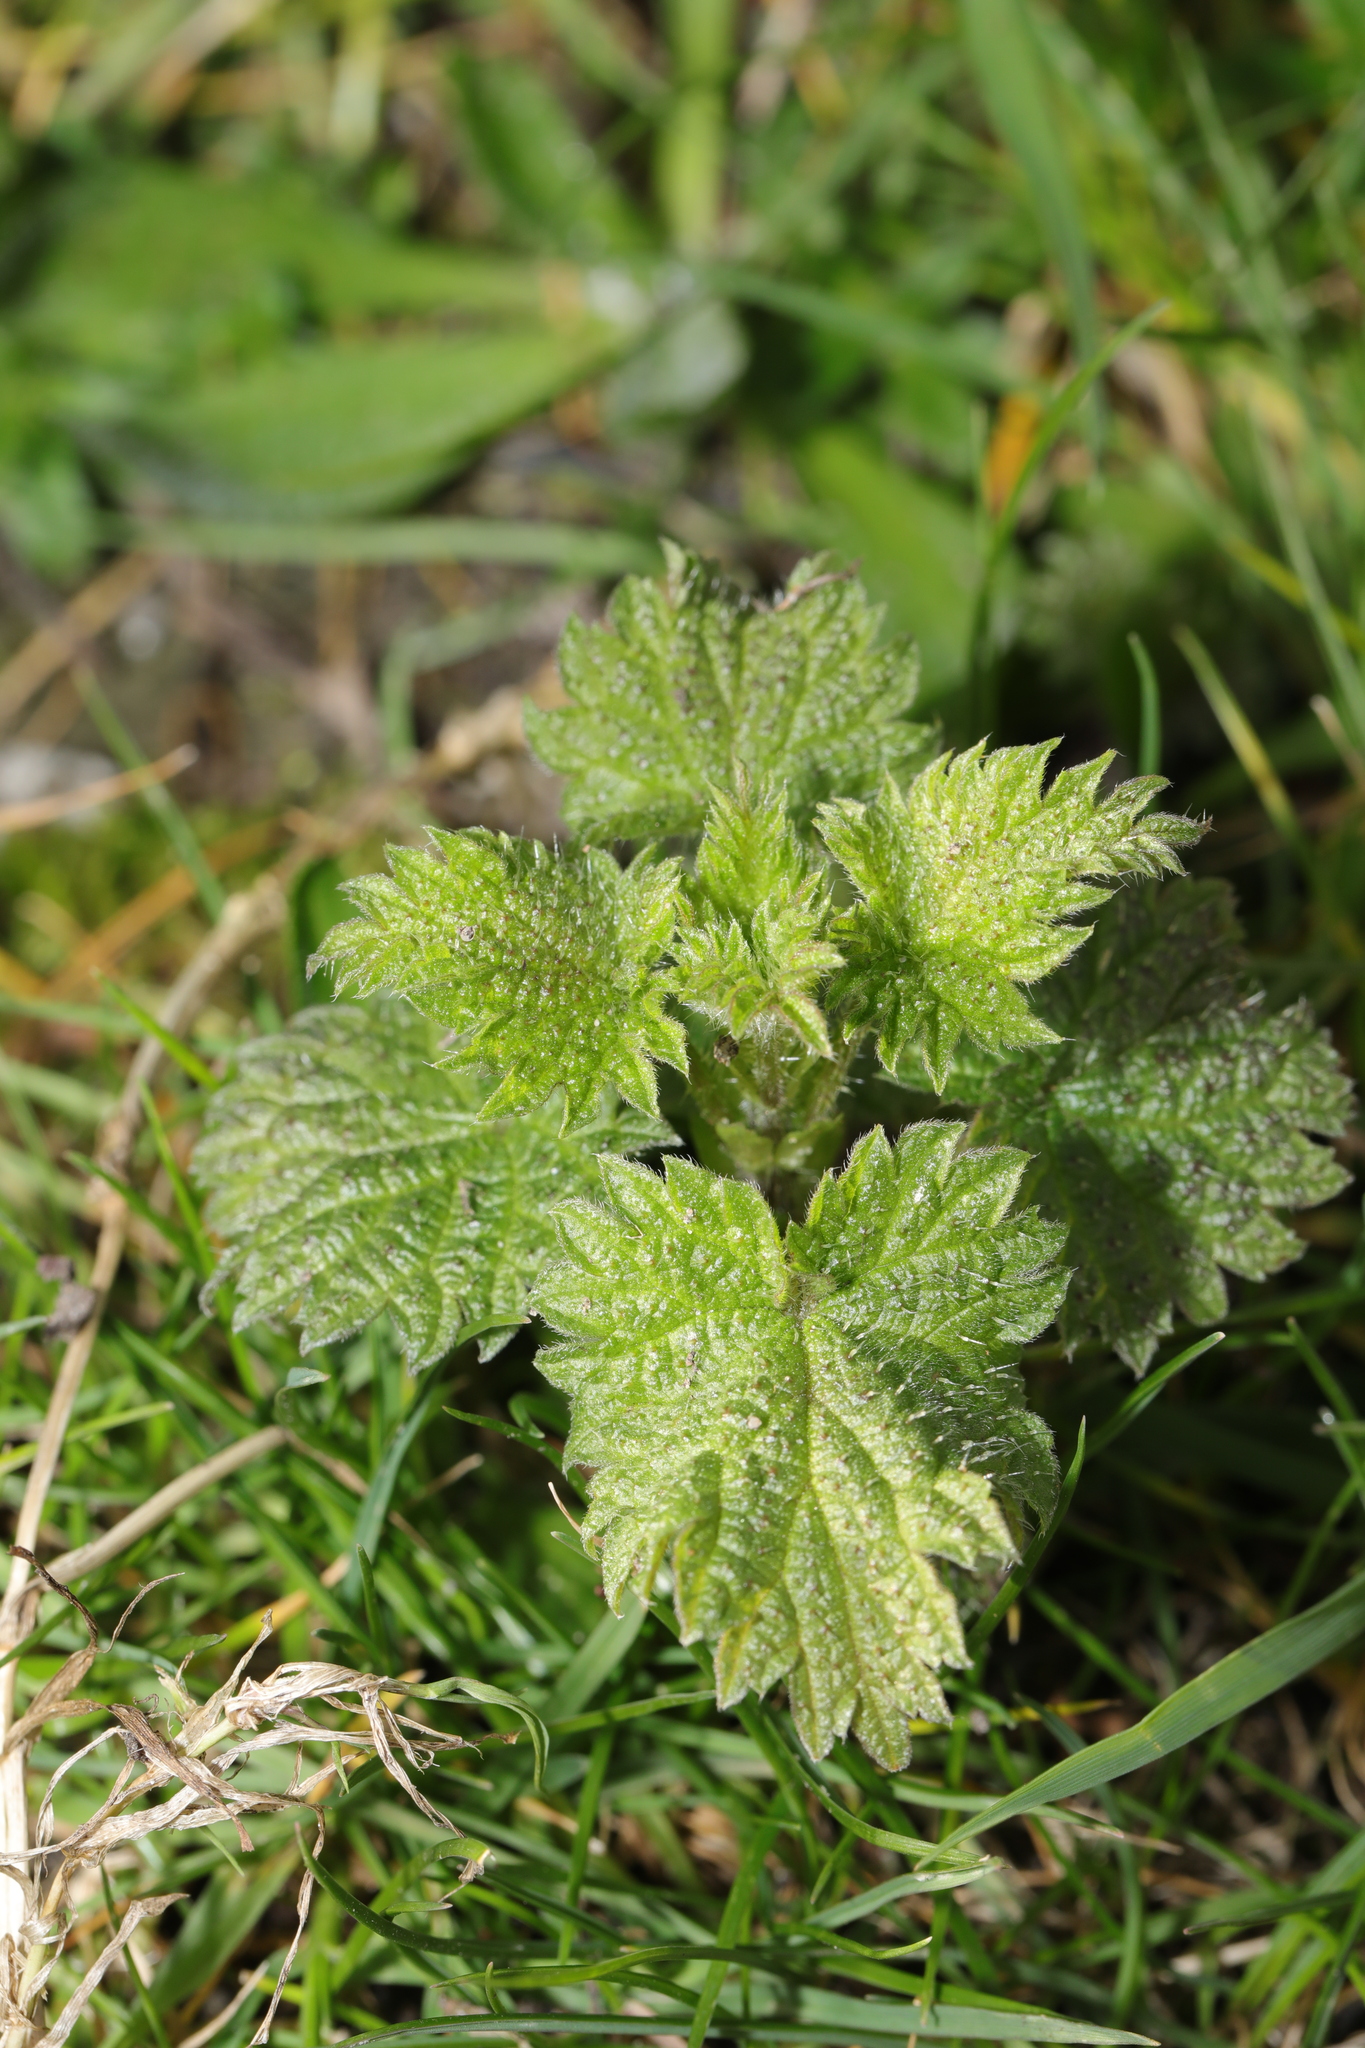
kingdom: Plantae
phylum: Tracheophyta
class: Magnoliopsida
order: Rosales
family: Urticaceae
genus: Urtica
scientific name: Urtica dioica
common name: Common nettle
